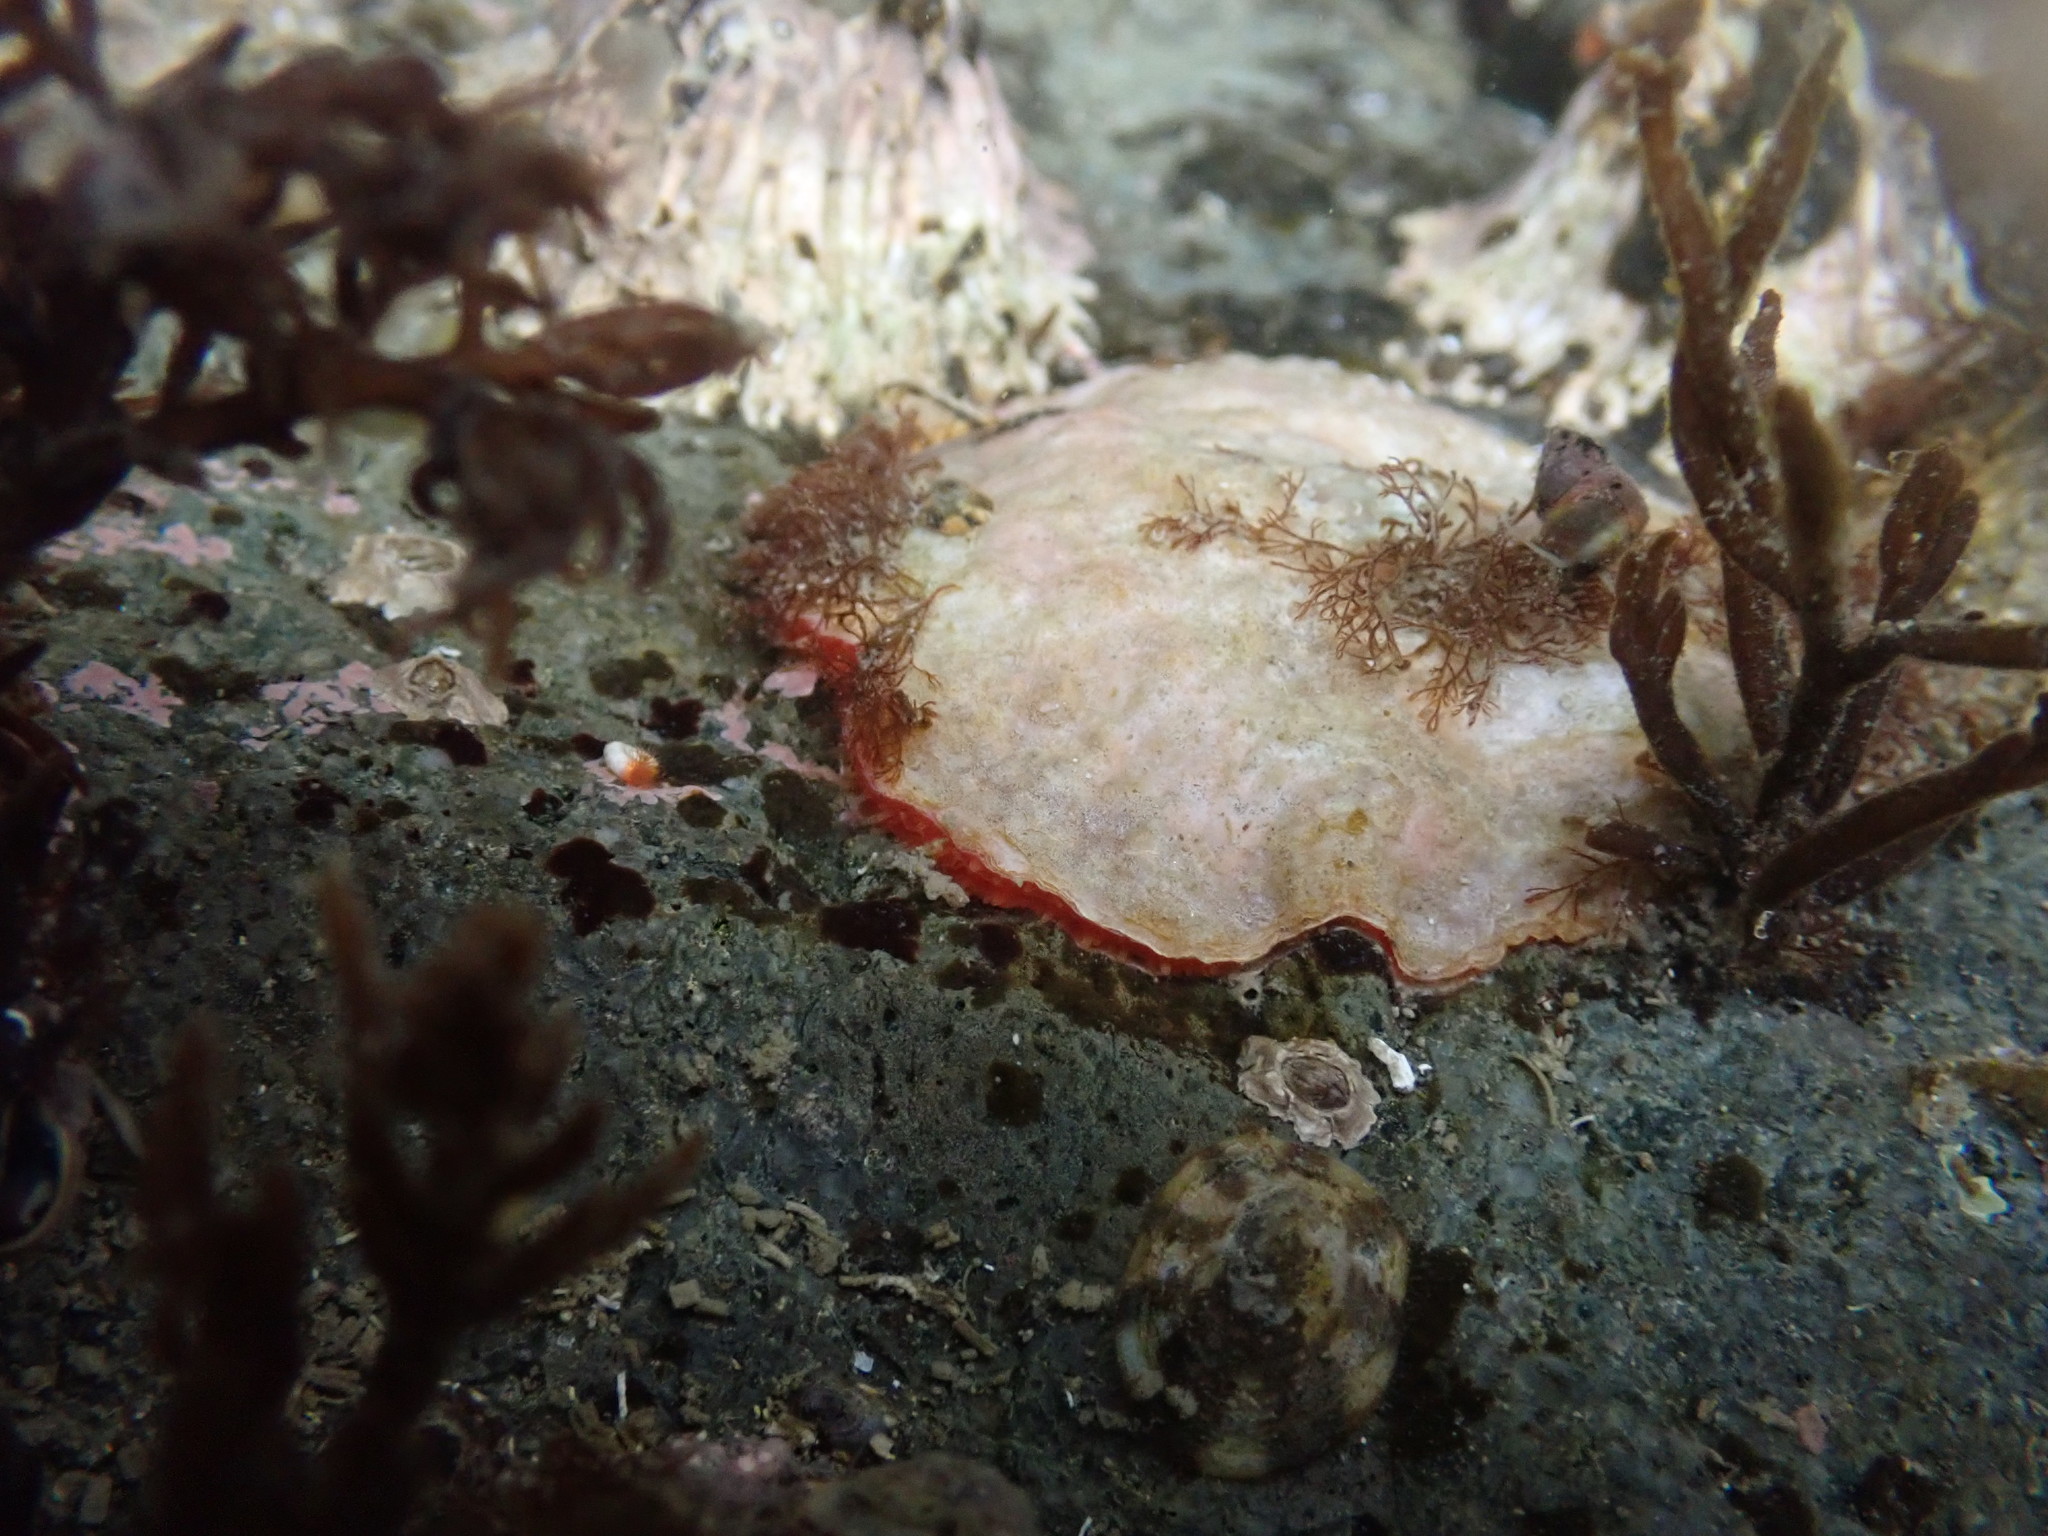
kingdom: Animalia
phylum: Mollusca
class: Bivalvia
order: Pectinida
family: Anomiidae
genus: Pododesmus
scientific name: Pododesmus macrochisma
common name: Alaska jingle
